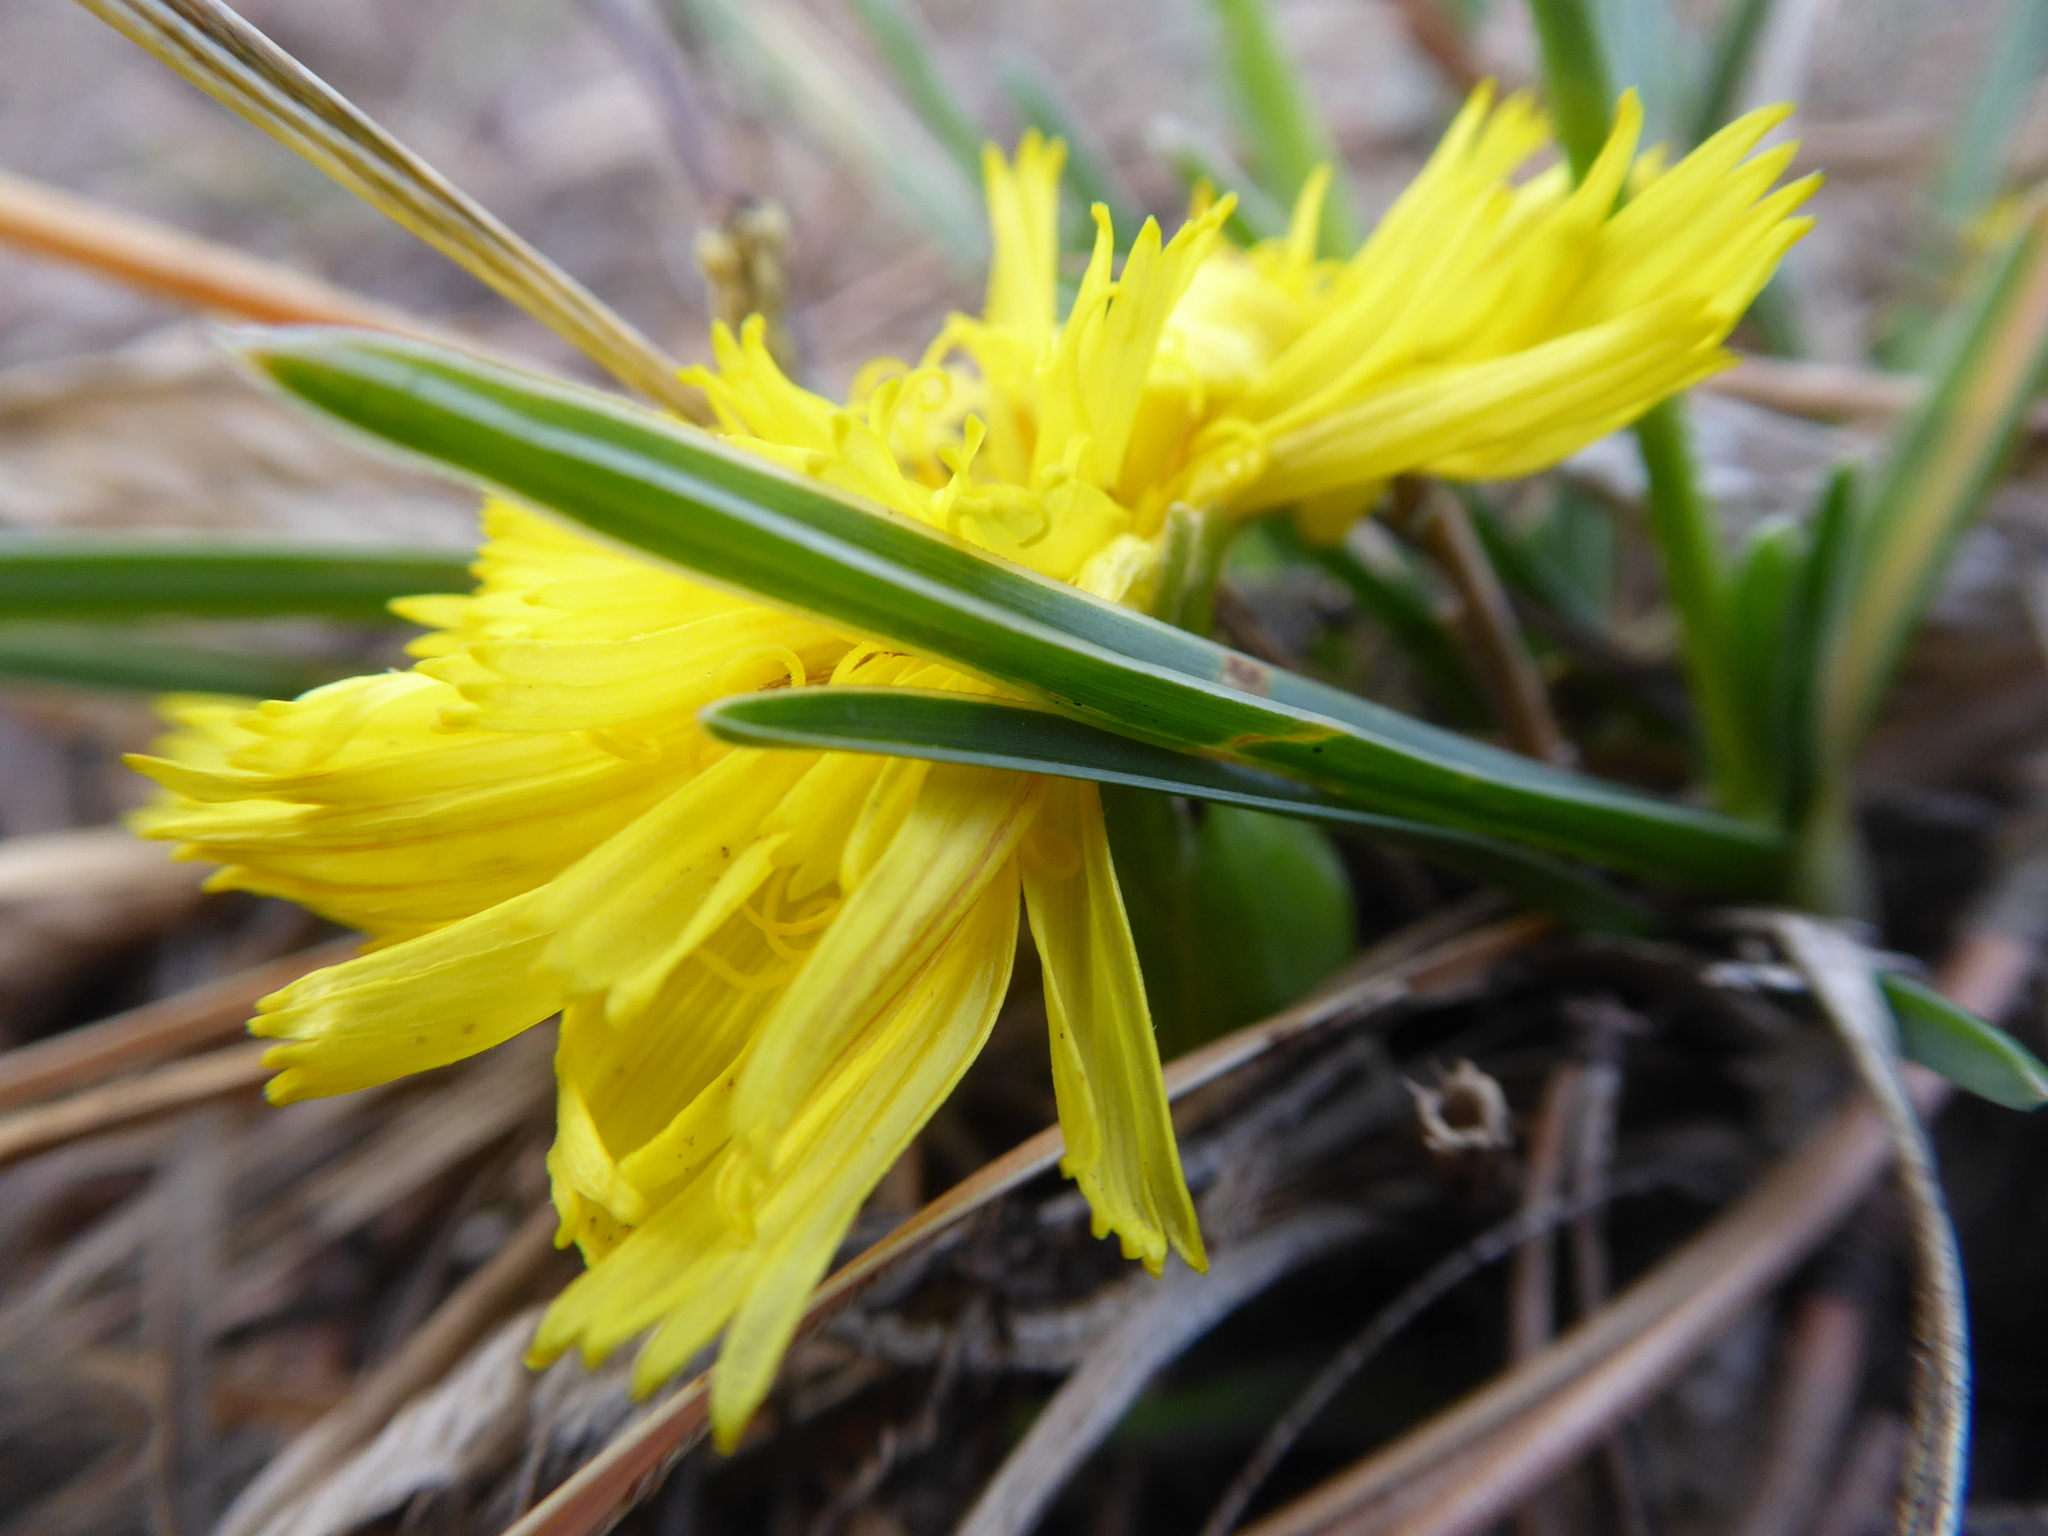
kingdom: Plantae
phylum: Tracheophyta
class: Magnoliopsida
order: Asterales
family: Asteraceae
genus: Takhtajaniantha
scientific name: Takhtajaniantha austriaca
